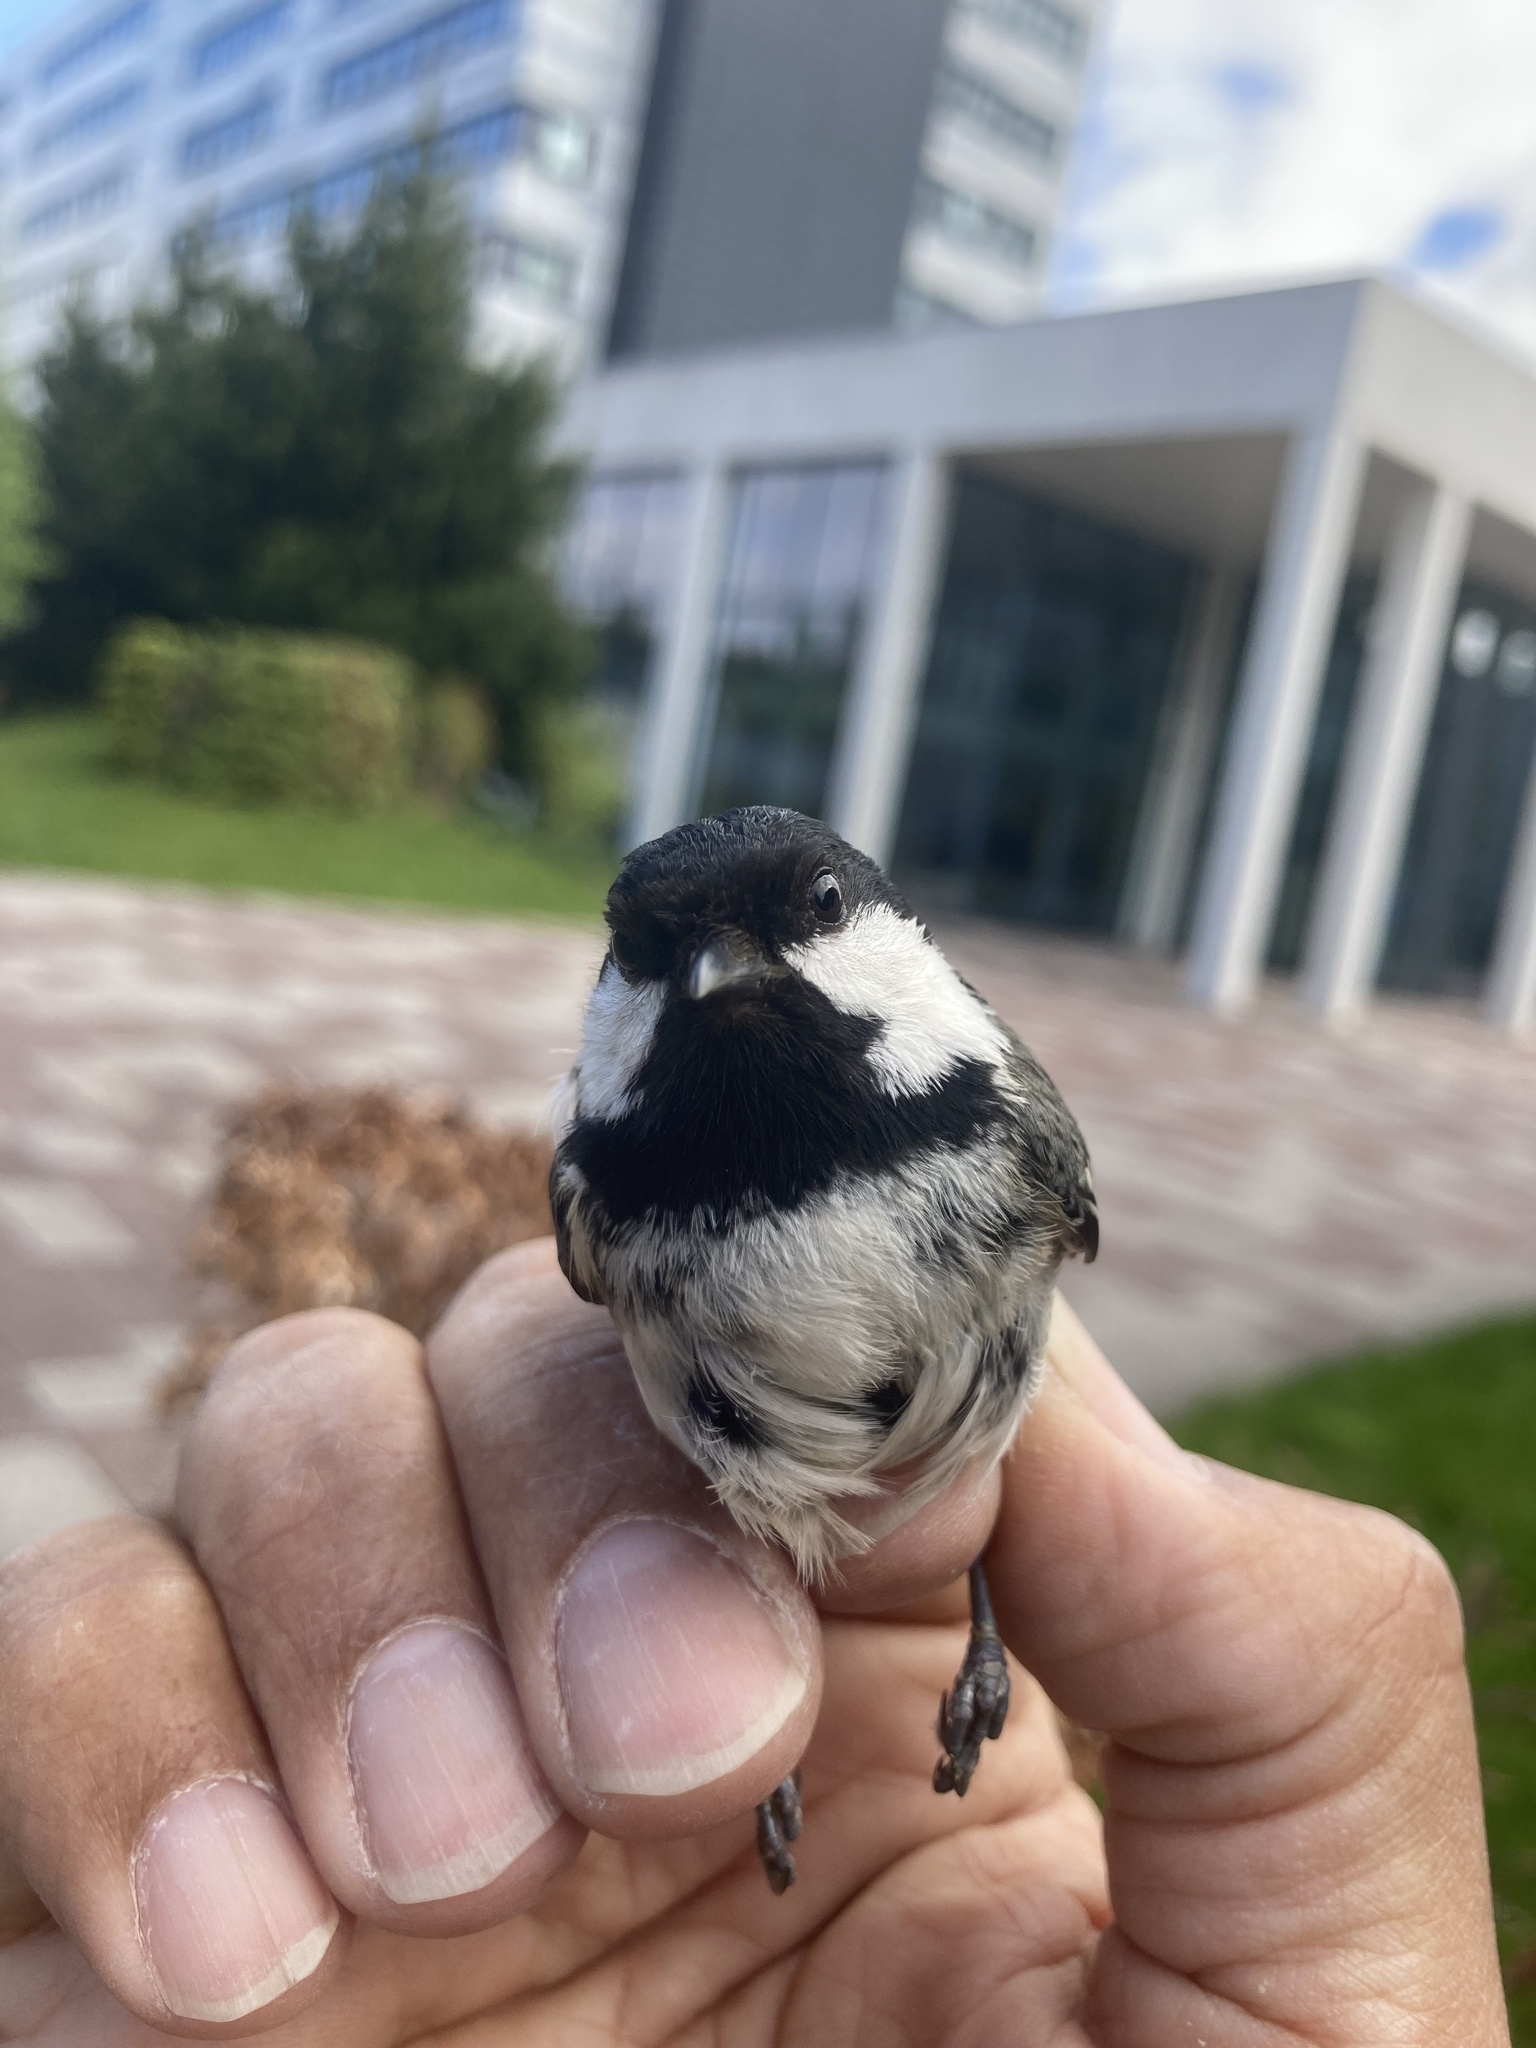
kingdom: Animalia
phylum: Chordata
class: Aves
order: Passeriformes
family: Paridae
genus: Periparus
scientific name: Periparus ater
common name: Coal tit
